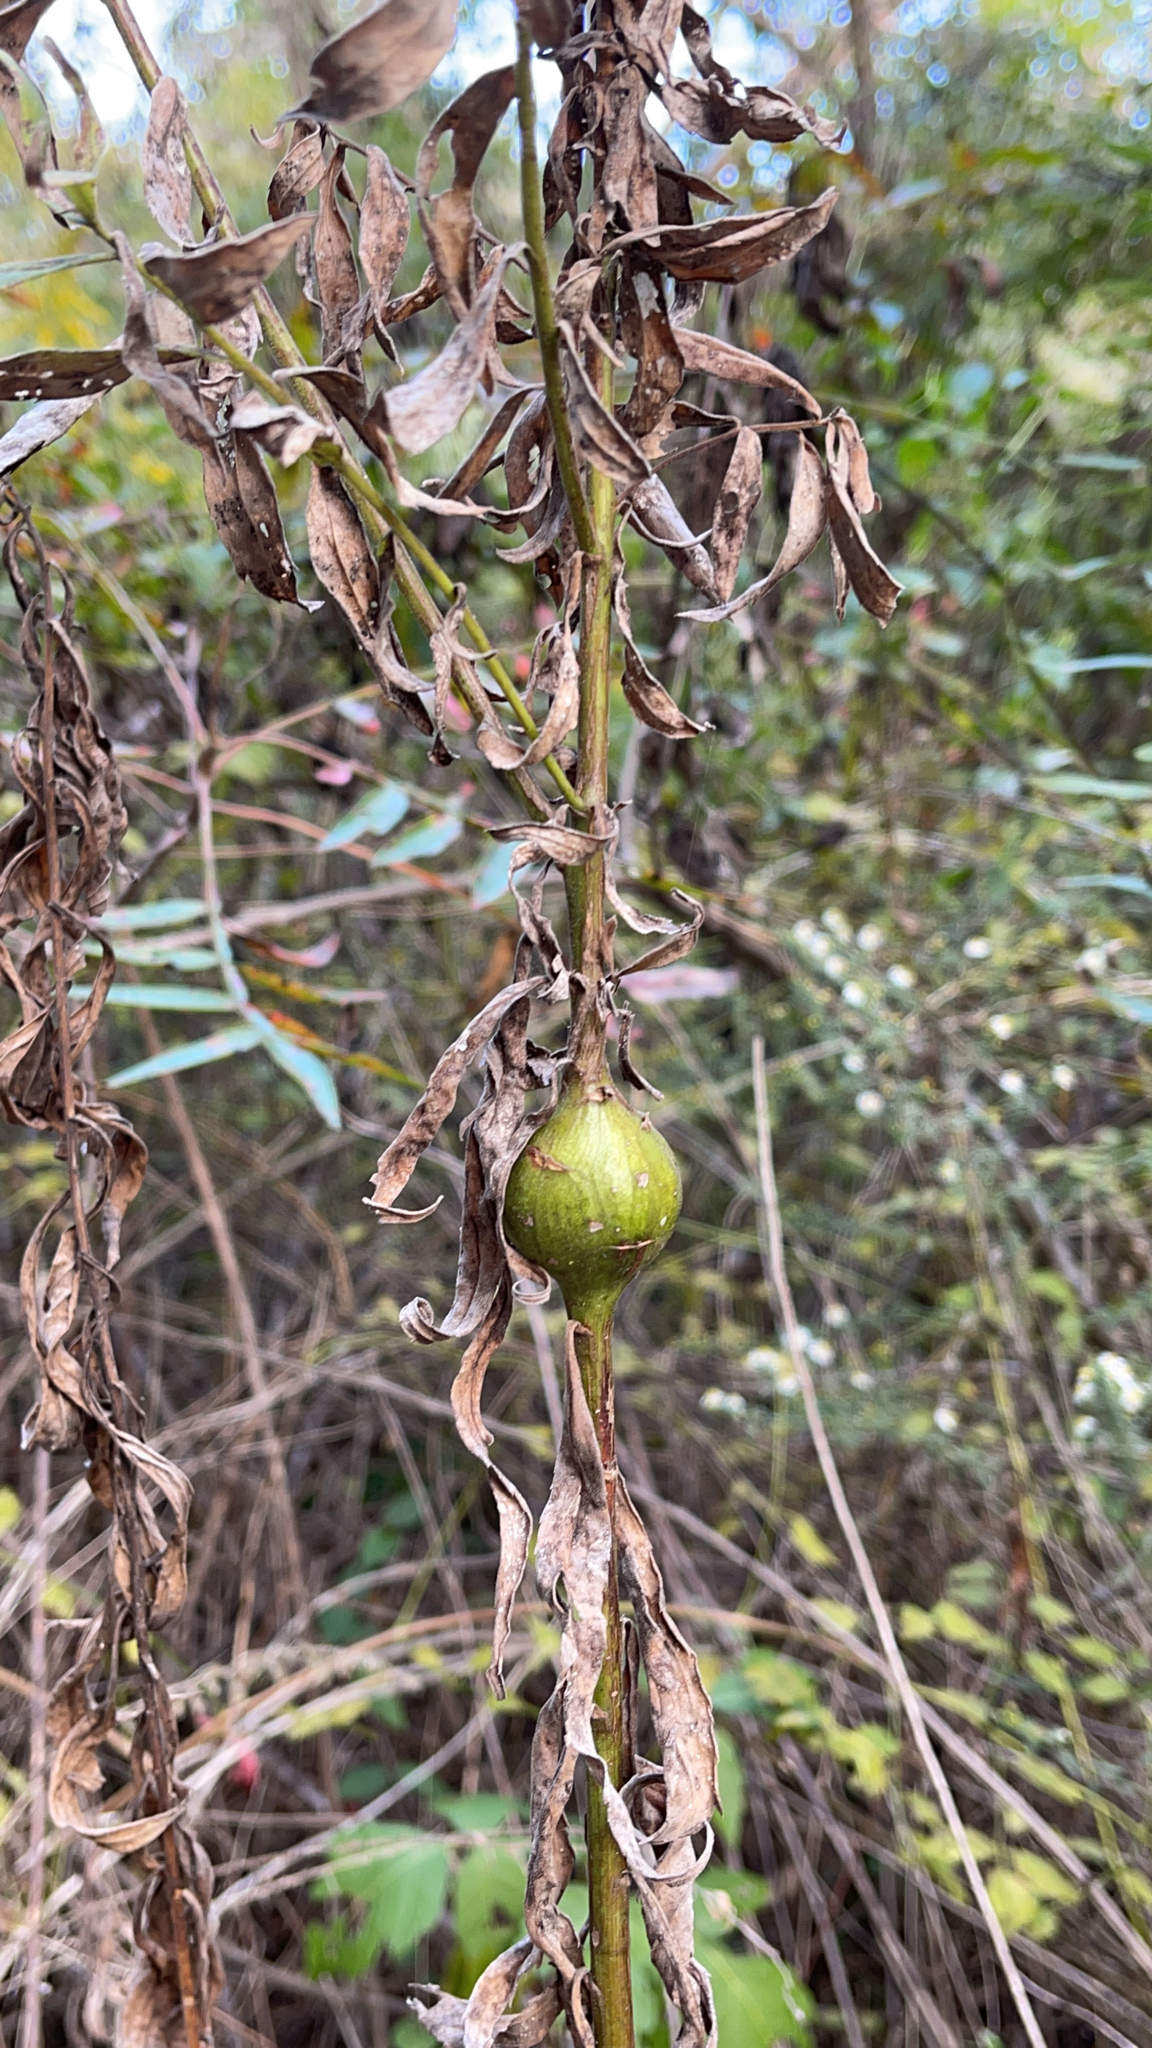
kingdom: Animalia
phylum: Arthropoda
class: Insecta
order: Diptera
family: Tephritidae
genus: Eurosta
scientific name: Eurosta solidaginis
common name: Goldenrod gall fly
